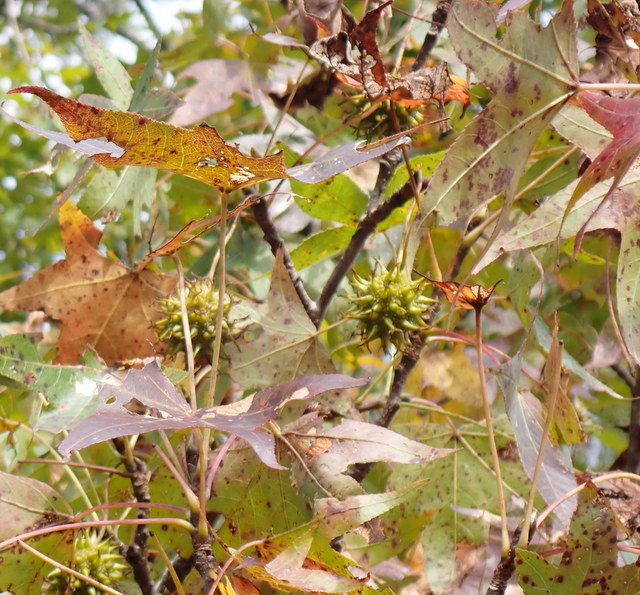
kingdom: Plantae
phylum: Tracheophyta
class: Magnoliopsida
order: Saxifragales
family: Altingiaceae
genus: Liquidambar
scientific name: Liquidambar styraciflua
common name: Sweet gum
